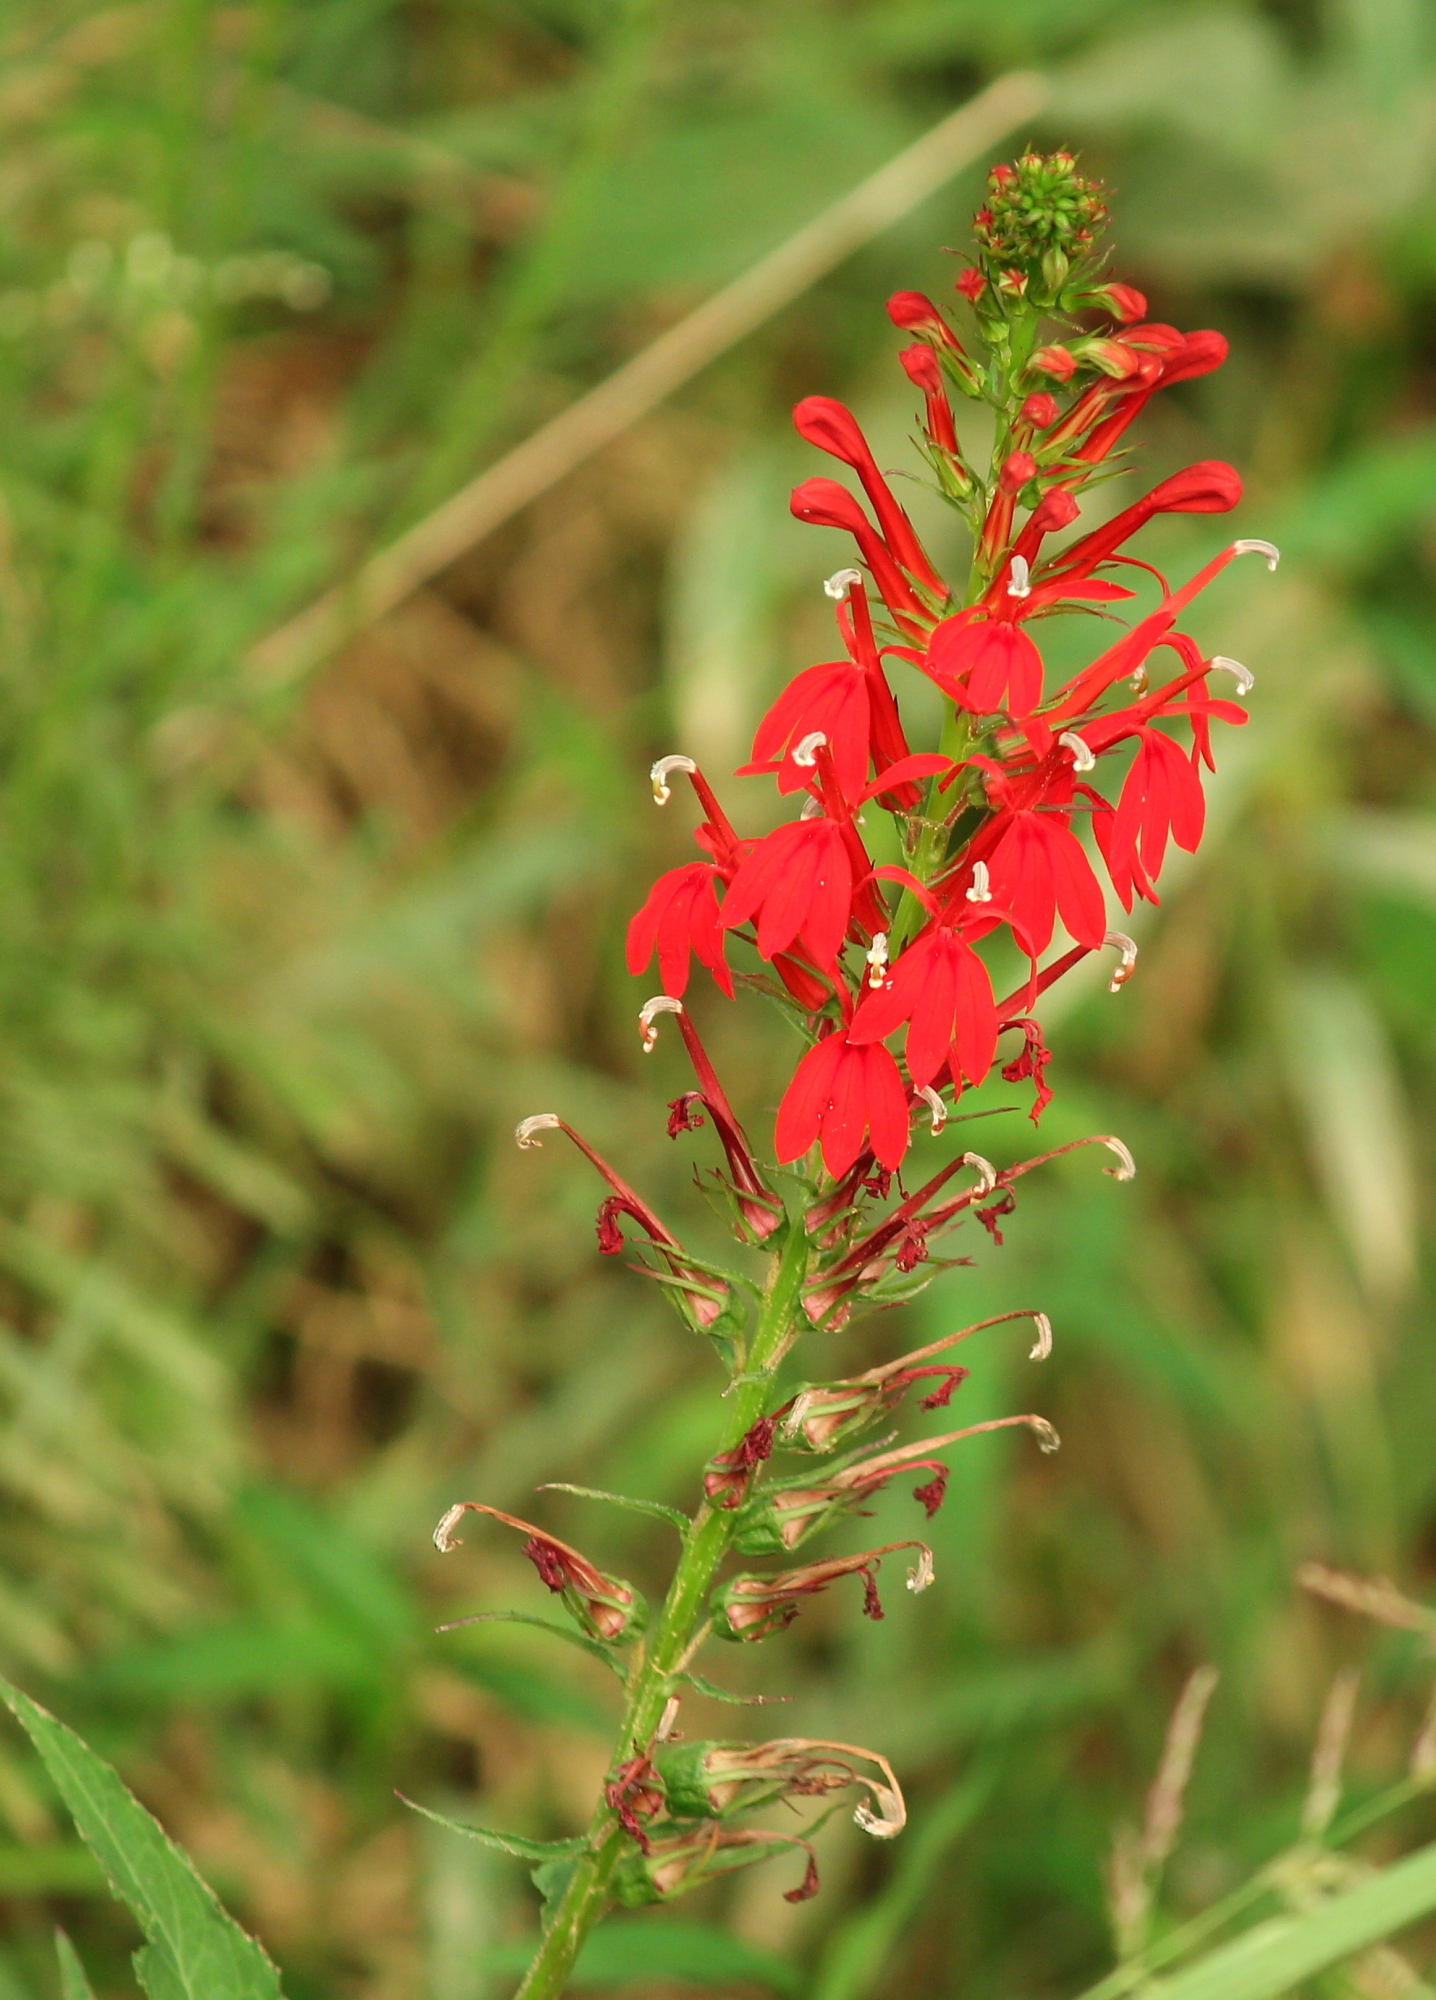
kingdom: Plantae
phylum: Tracheophyta
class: Magnoliopsida
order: Asterales
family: Campanulaceae
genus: Lobelia
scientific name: Lobelia cardinalis
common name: Cardinal flower
